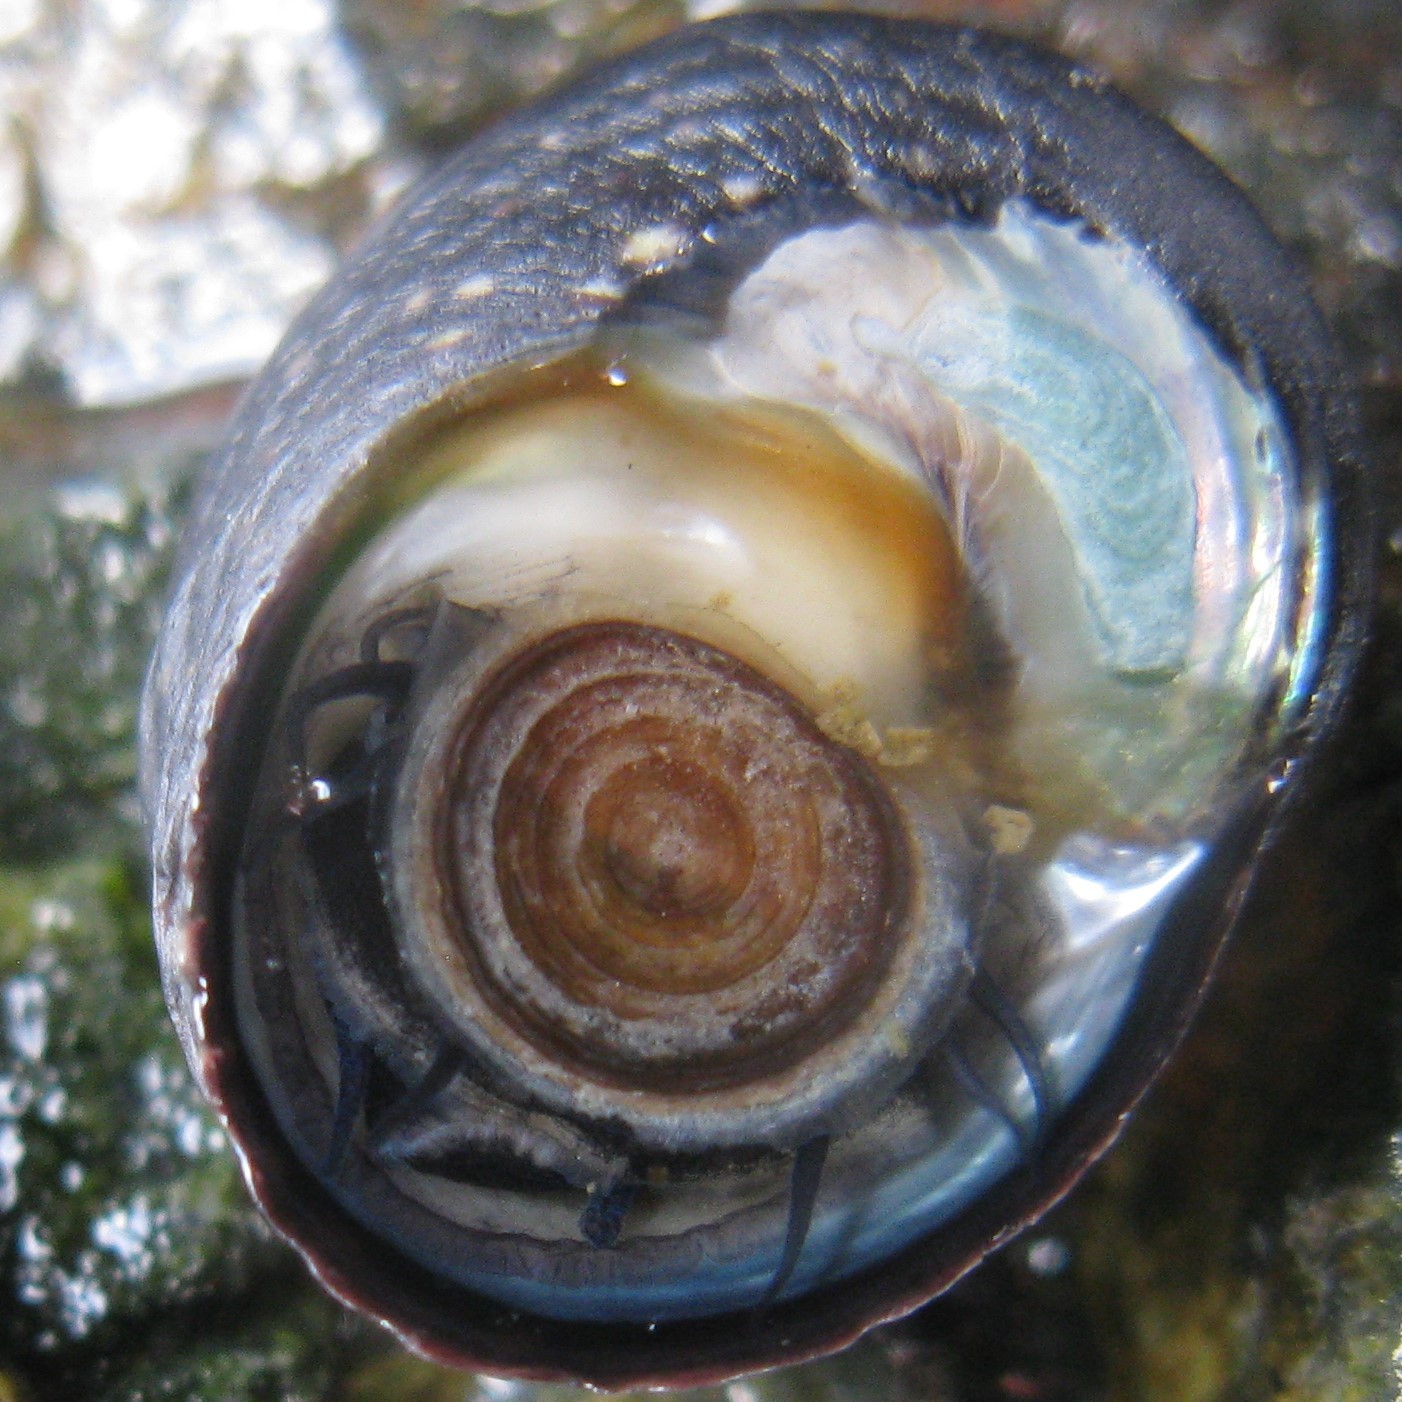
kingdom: Animalia
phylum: Mollusca
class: Gastropoda
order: Trochida
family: Trochidae
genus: Diloma
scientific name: Diloma aethiops
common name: Scorched monodont
